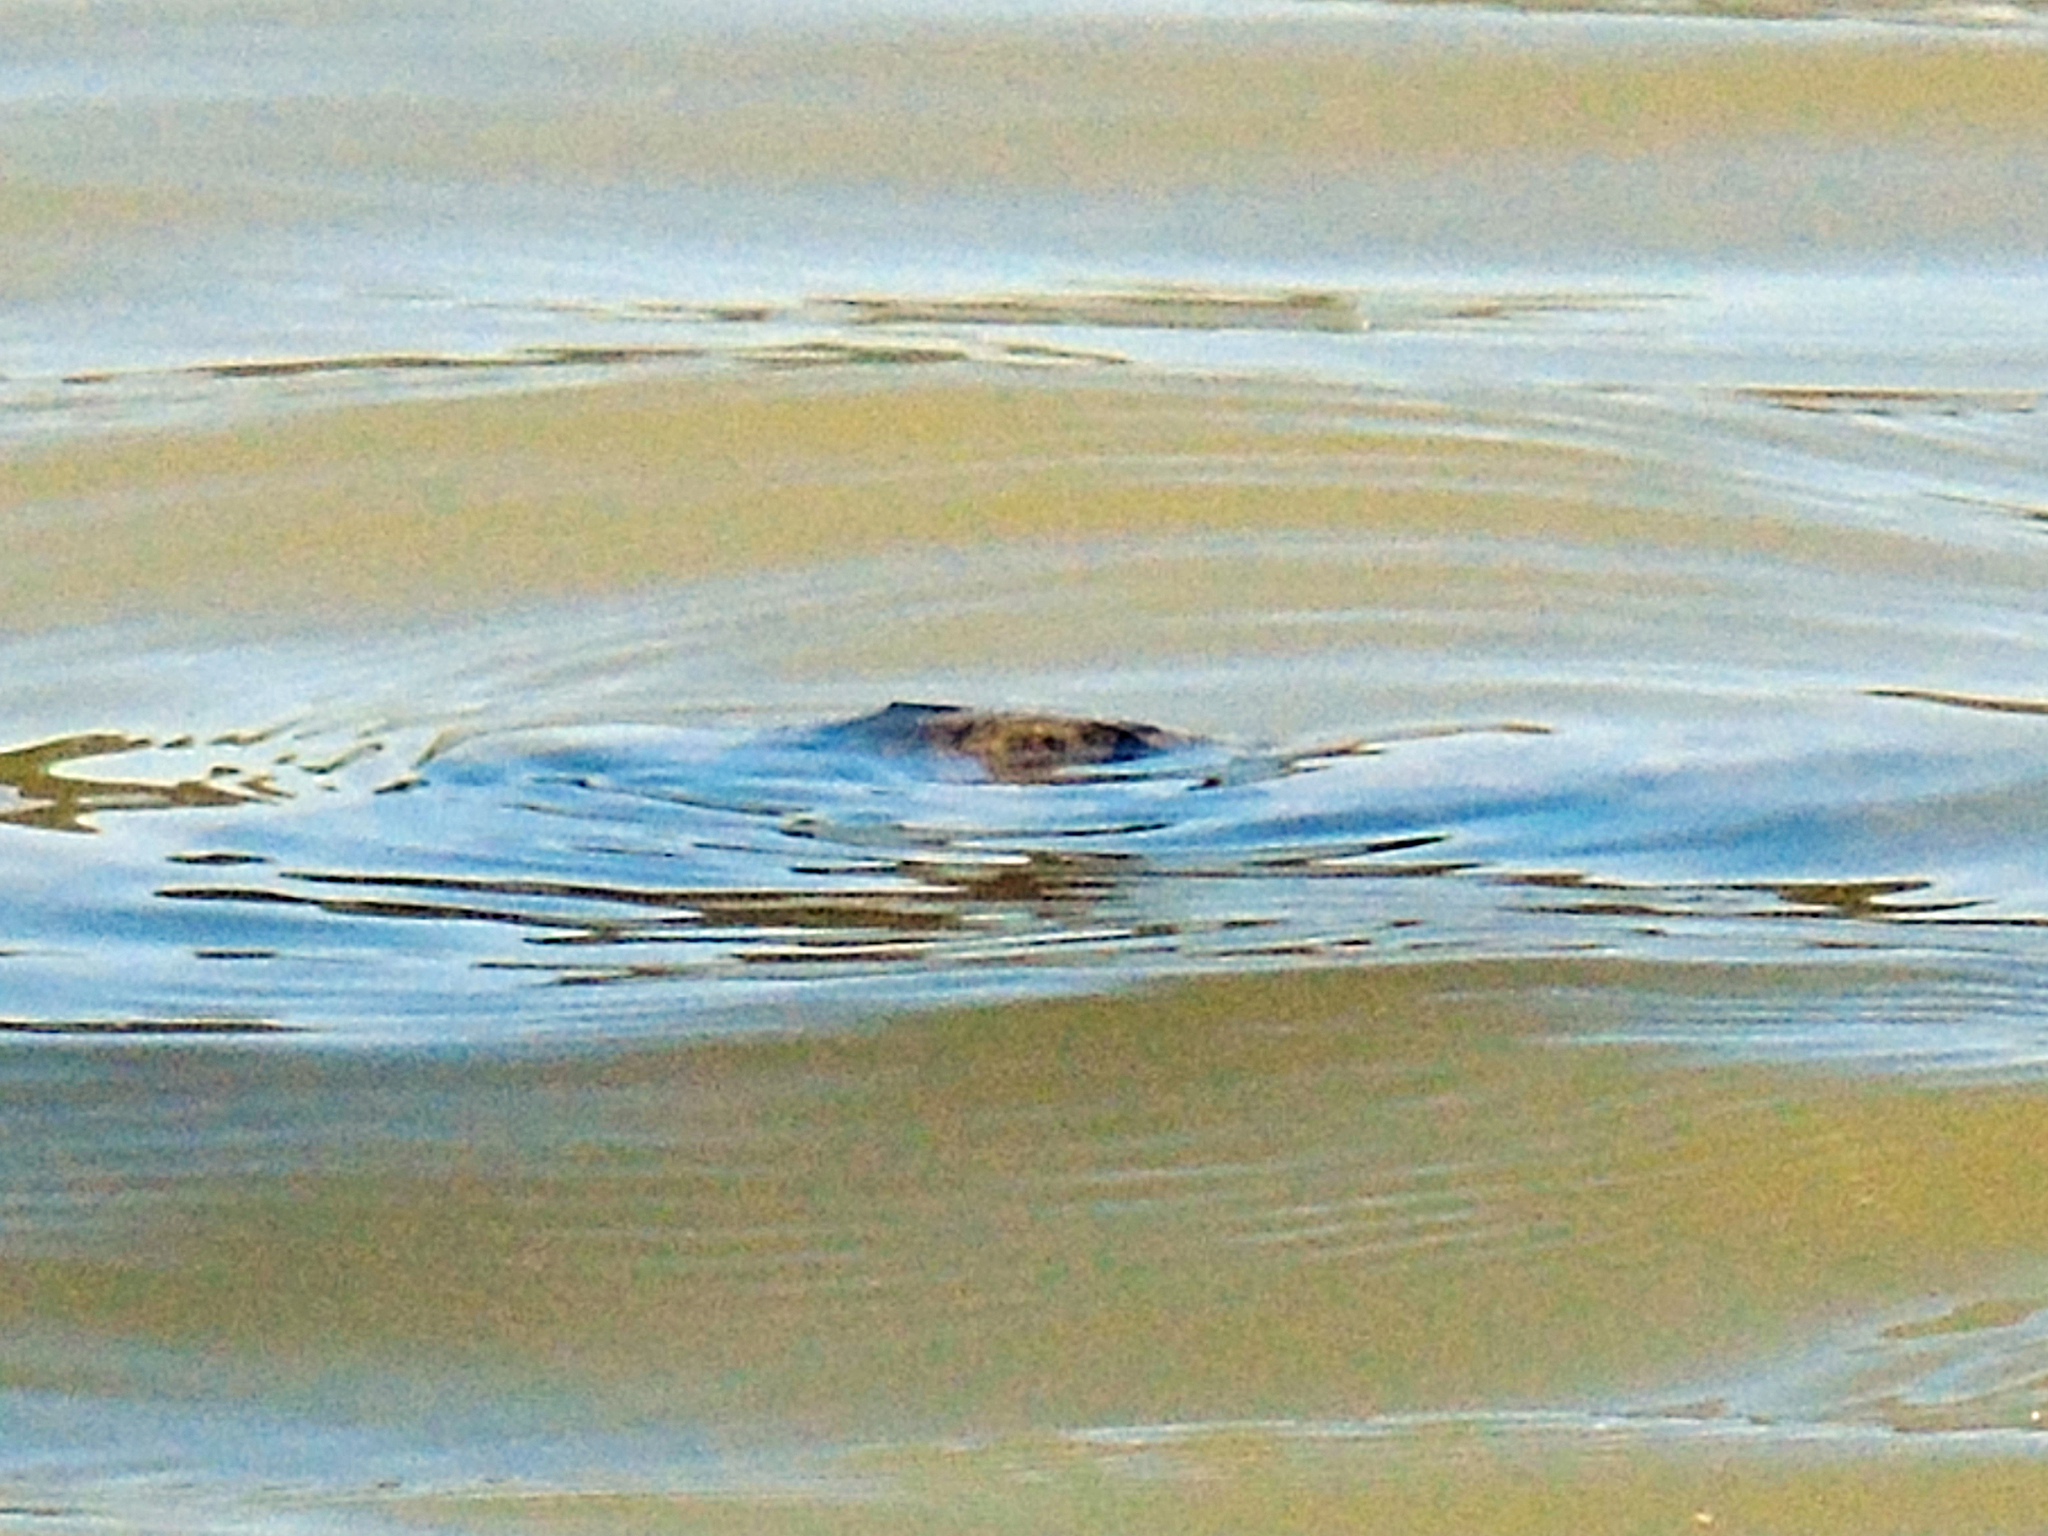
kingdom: Animalia
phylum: Chordata
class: Testudines
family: Trionychidae
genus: Rafetus
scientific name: Rafetus euphraticus
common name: Euphrates softshell
